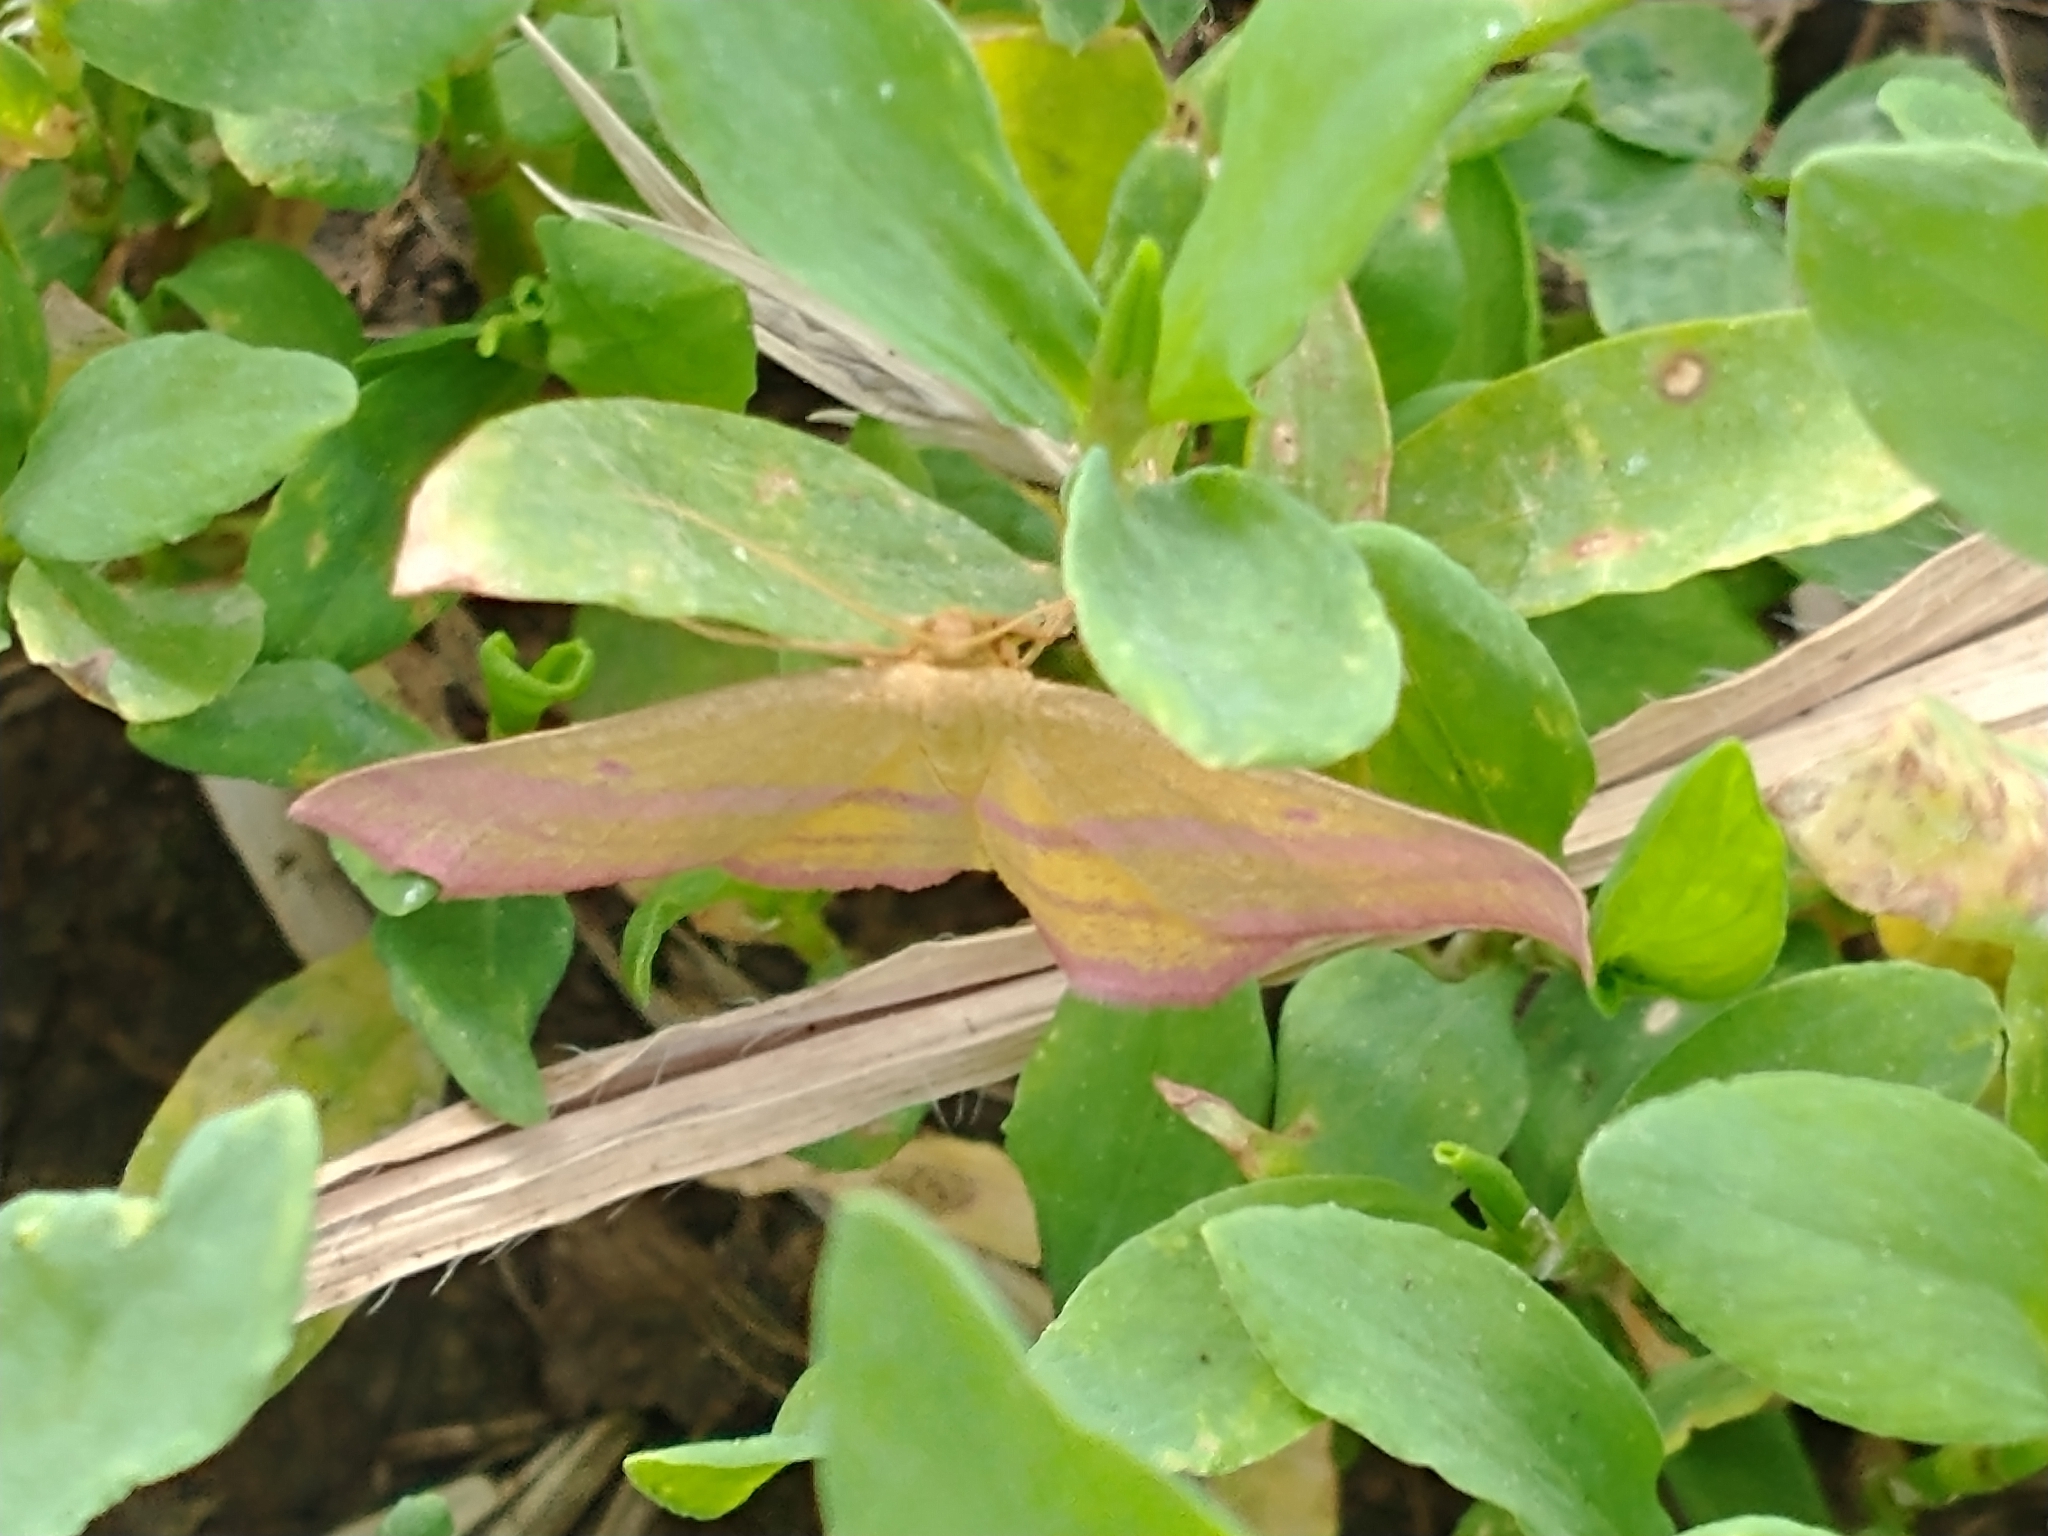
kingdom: Animalia
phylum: Arthropoda
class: Insecta
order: Lepidoptera
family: Geometridae
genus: Haematopis
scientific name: Haematopis grataria
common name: Chickweed geometer
